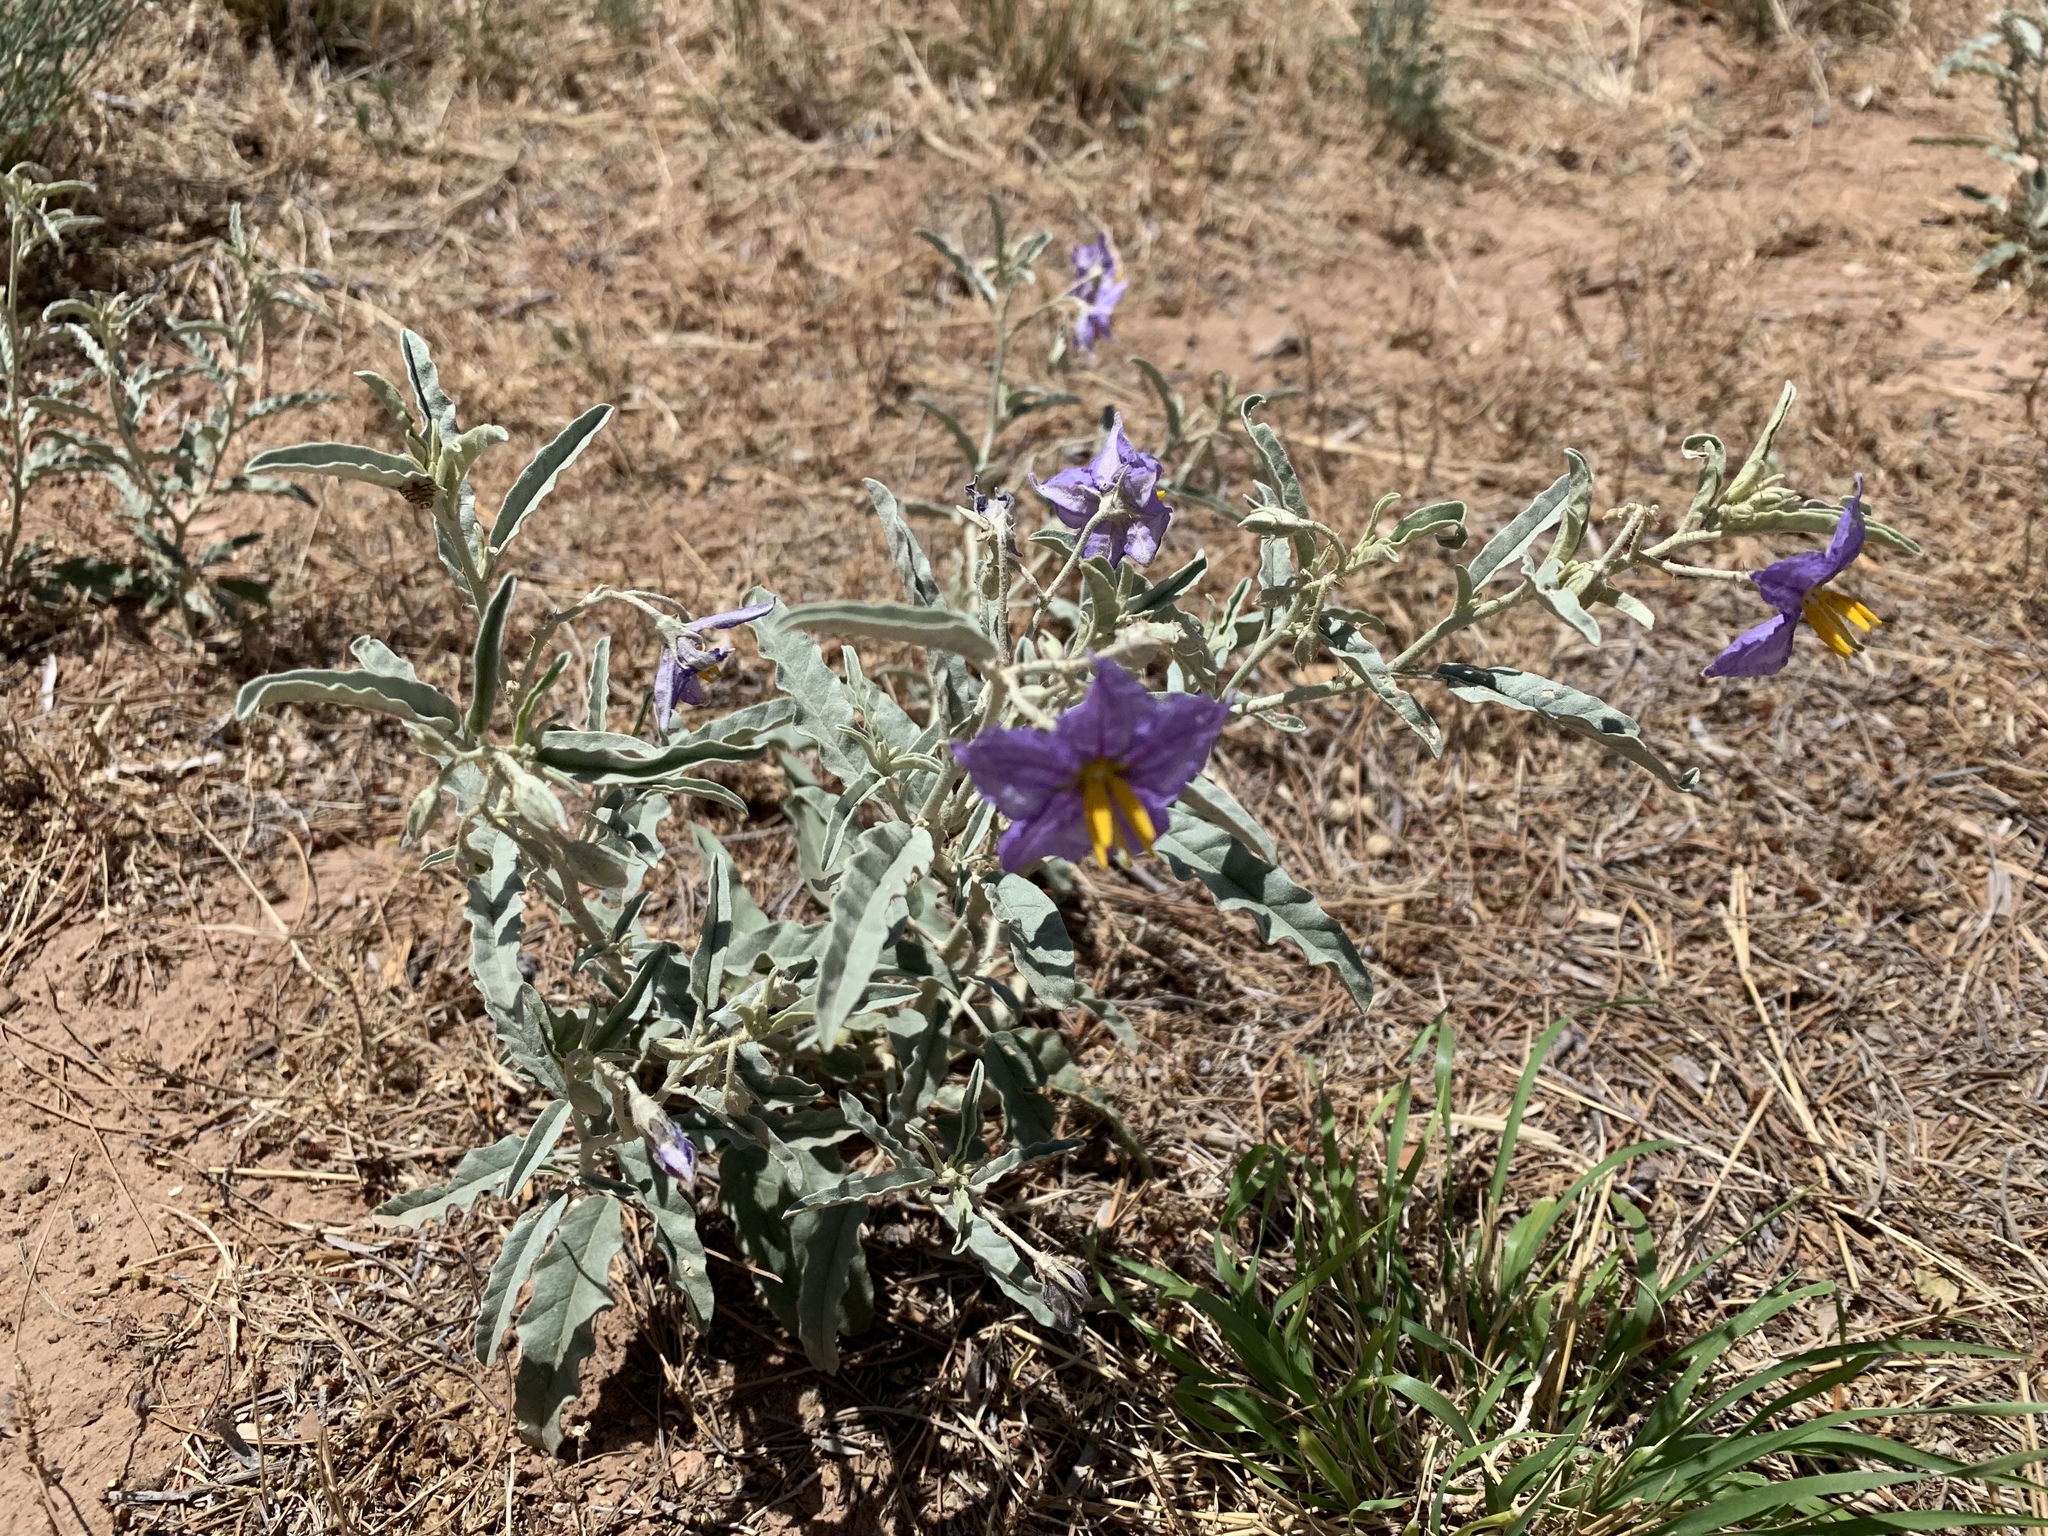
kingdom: Plantae
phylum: Tracheophyta
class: Magnoliopsida
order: Solanales
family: Solanaceae
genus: Solanum
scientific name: Solanum elaeagnifolium
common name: Silverleaf nightshade
